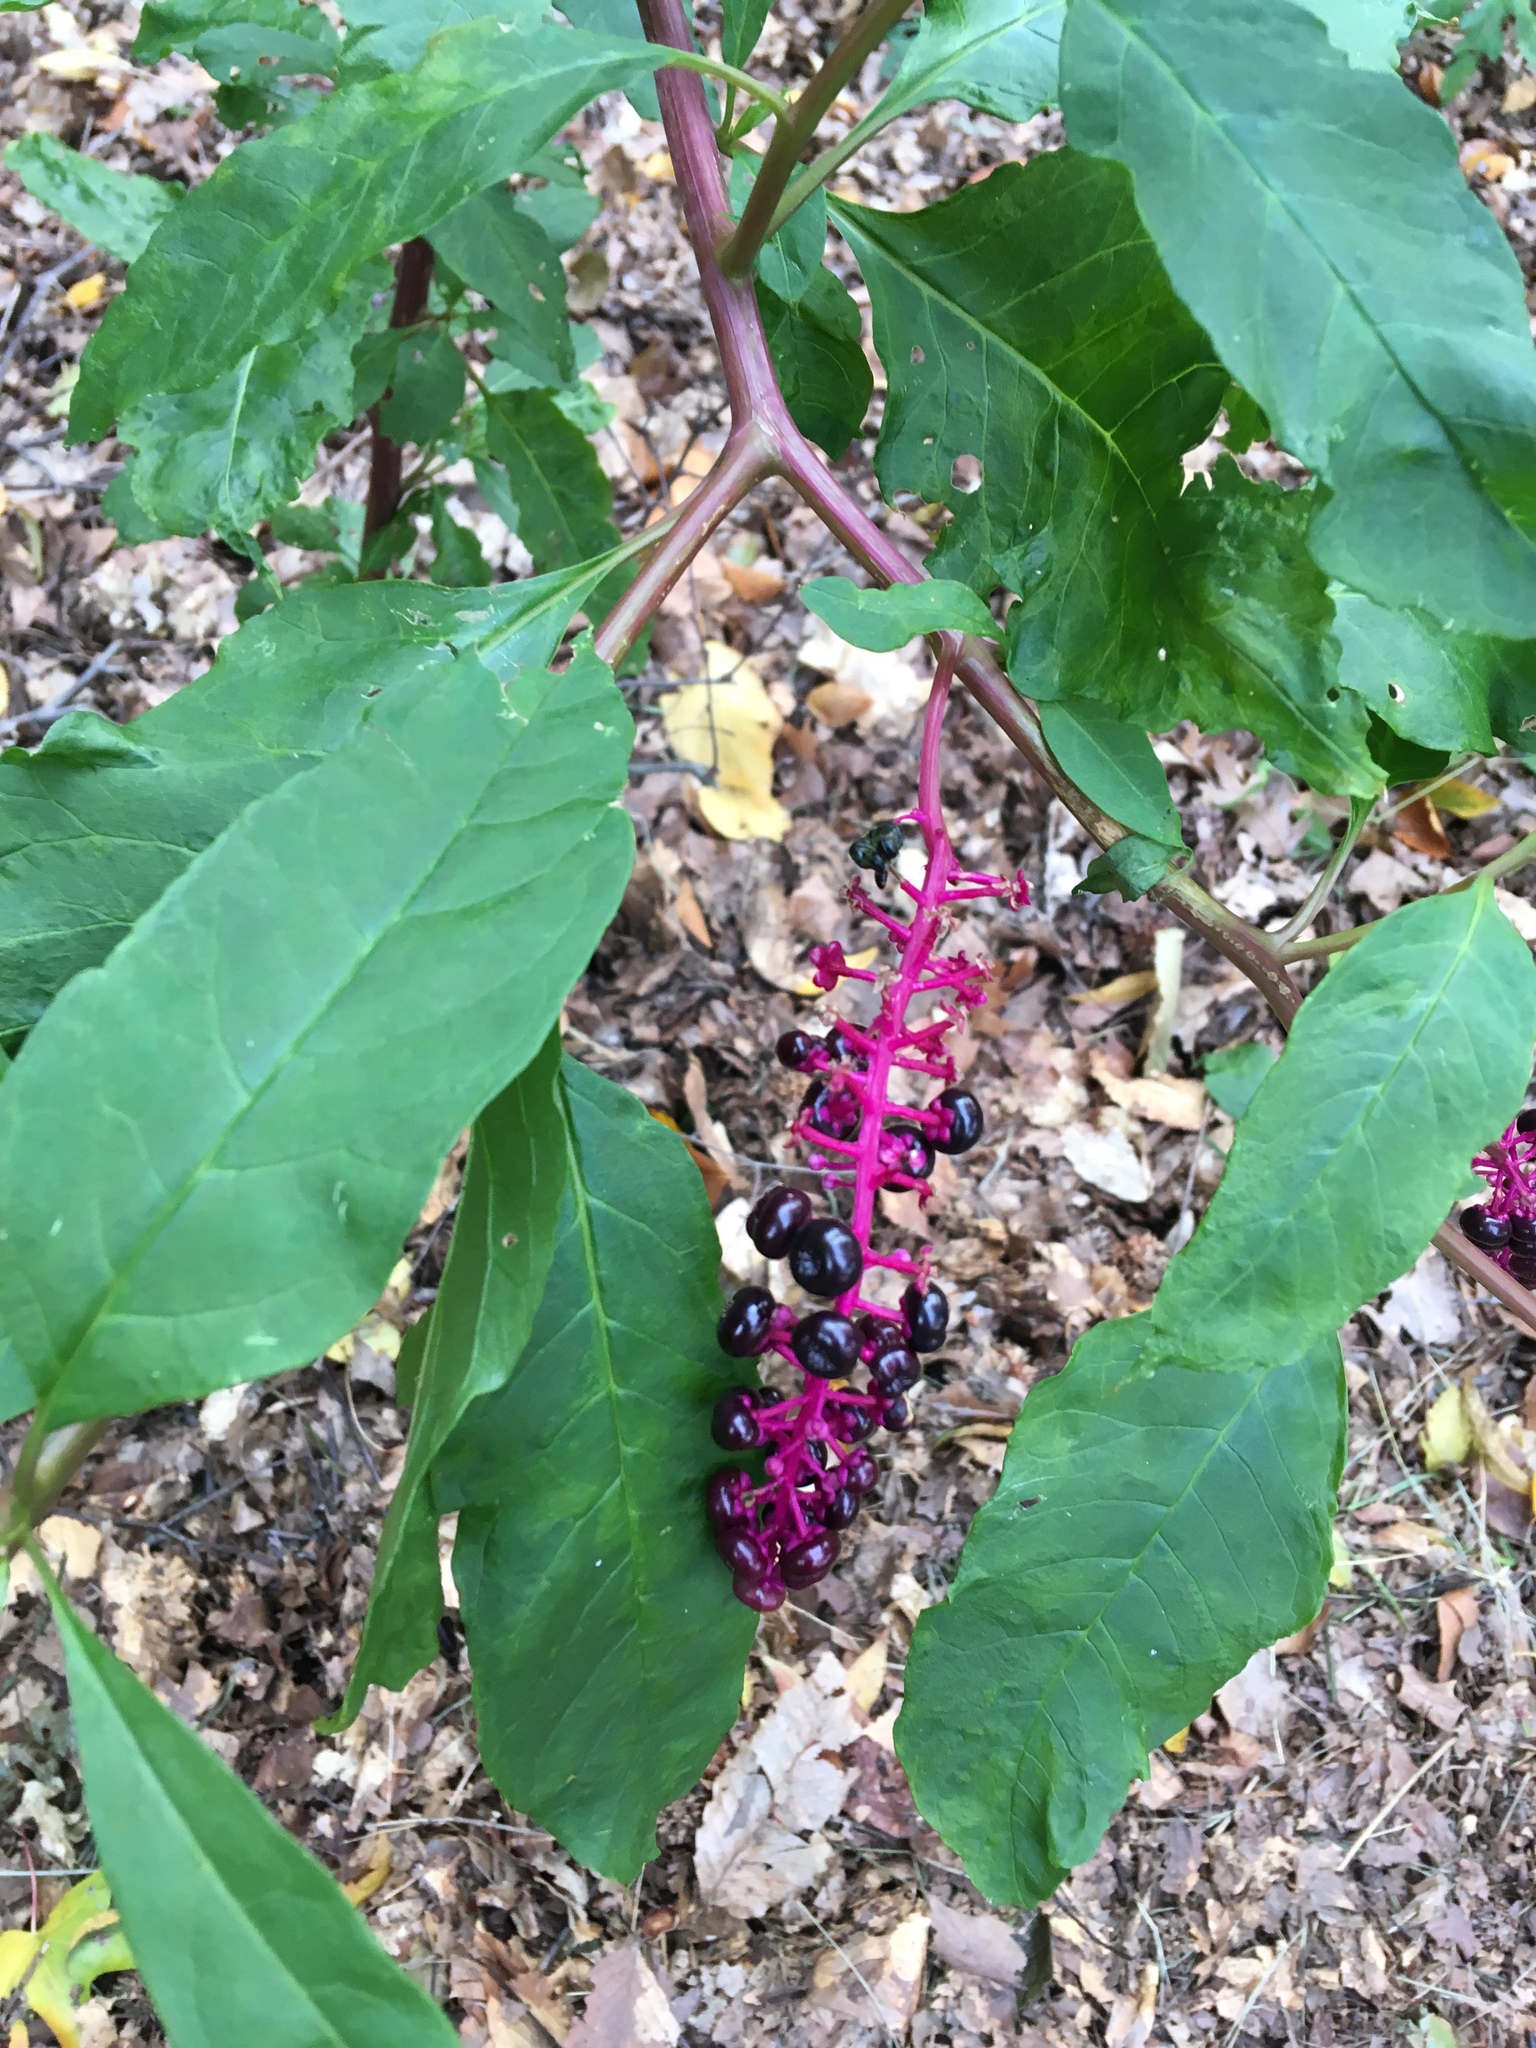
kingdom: Plantae
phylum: Tracheophyta
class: Magnoliopsida
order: Caryophyllales
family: Phytolaccaceae
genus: Phytolacca
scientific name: Phytolacca americana
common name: American pokeweed
